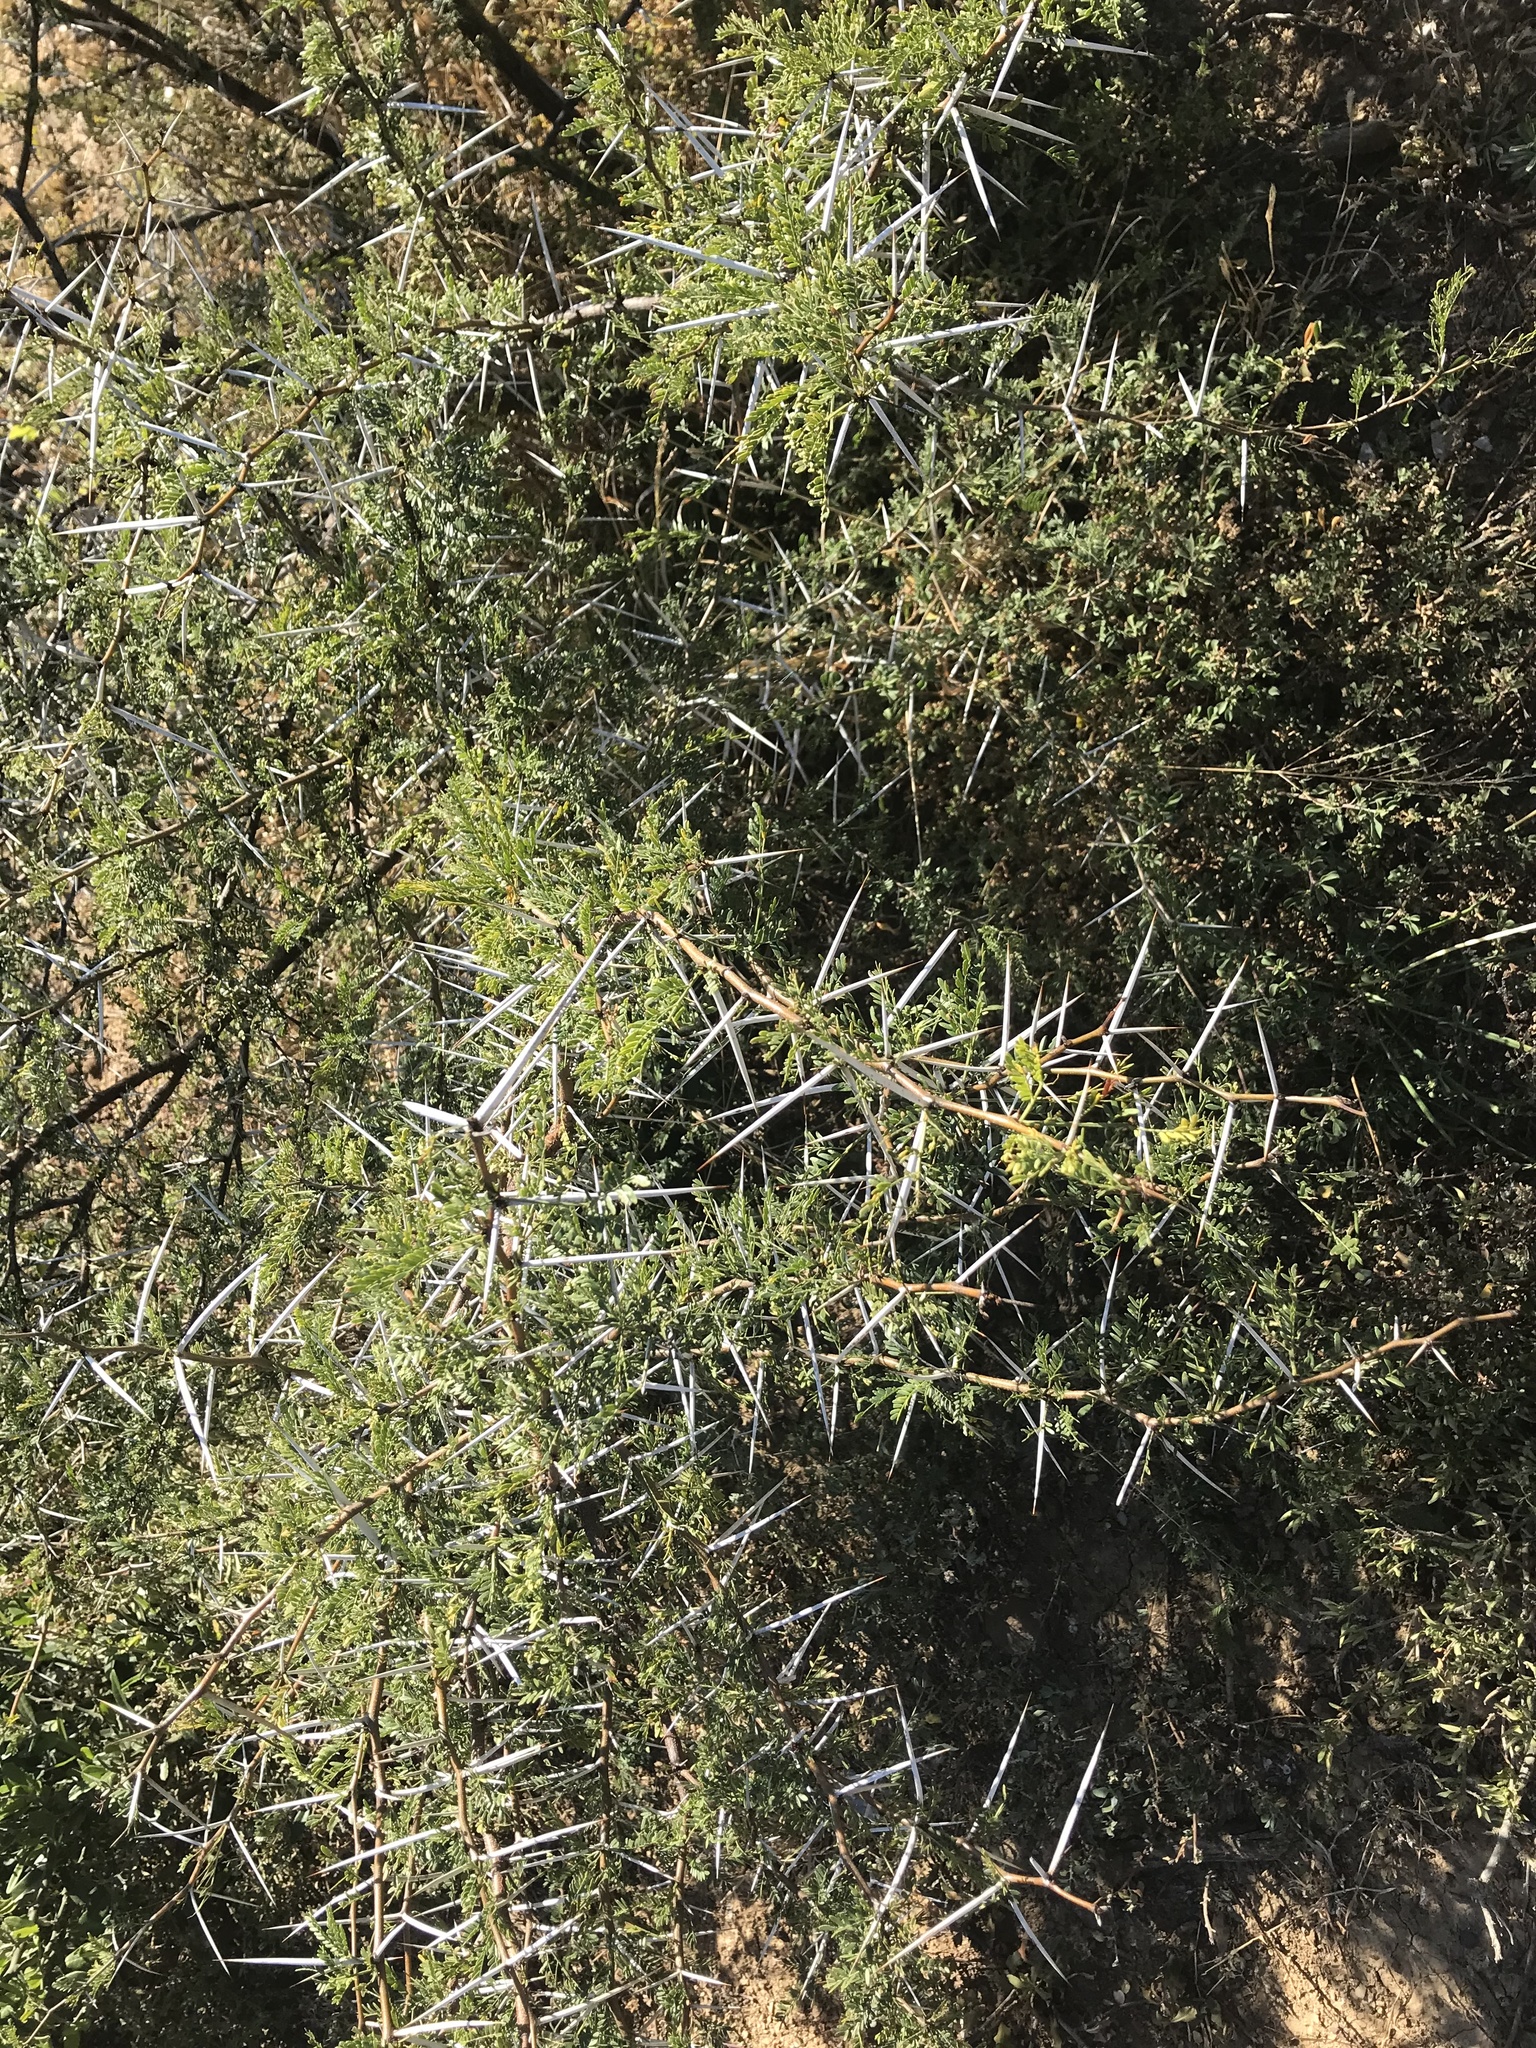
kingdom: Plantae
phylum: Tracheophyta
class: Magnoliopsida
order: Fabales
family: Fabaceae
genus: Vachellia
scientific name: Vachellia karroo
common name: Sweet thorn
